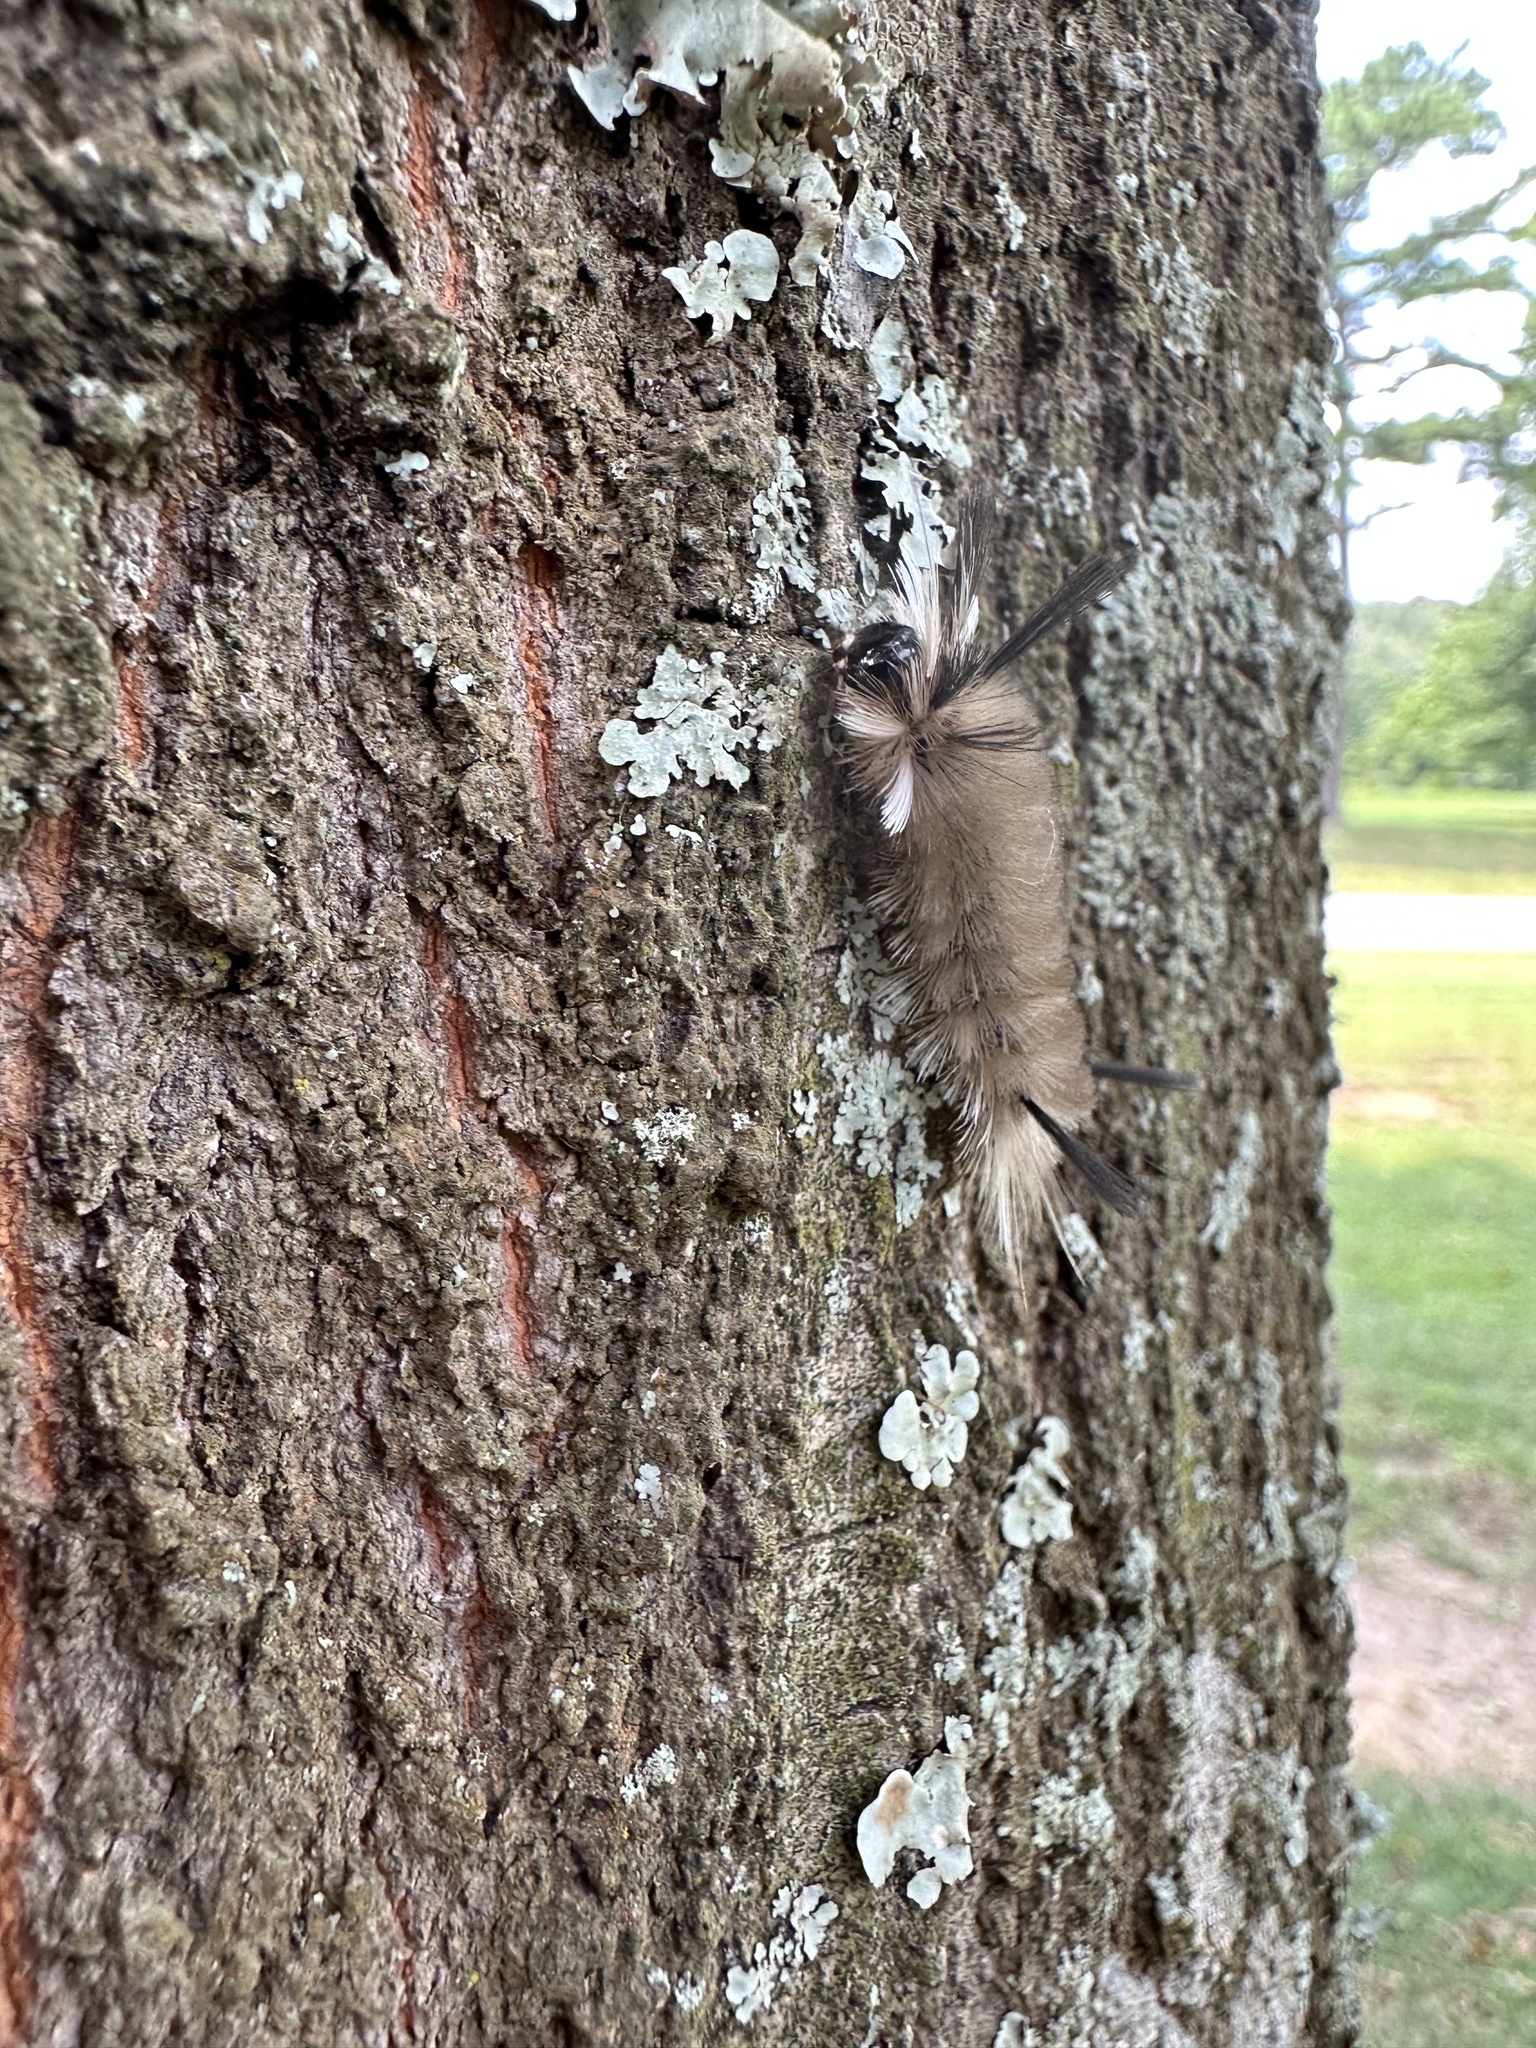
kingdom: Animalia
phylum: Arthropoda
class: Insecta
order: Lepidoptera
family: Erebidae
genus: Halysidota
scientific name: Halysidota tessellaris
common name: Banded tussock moth
